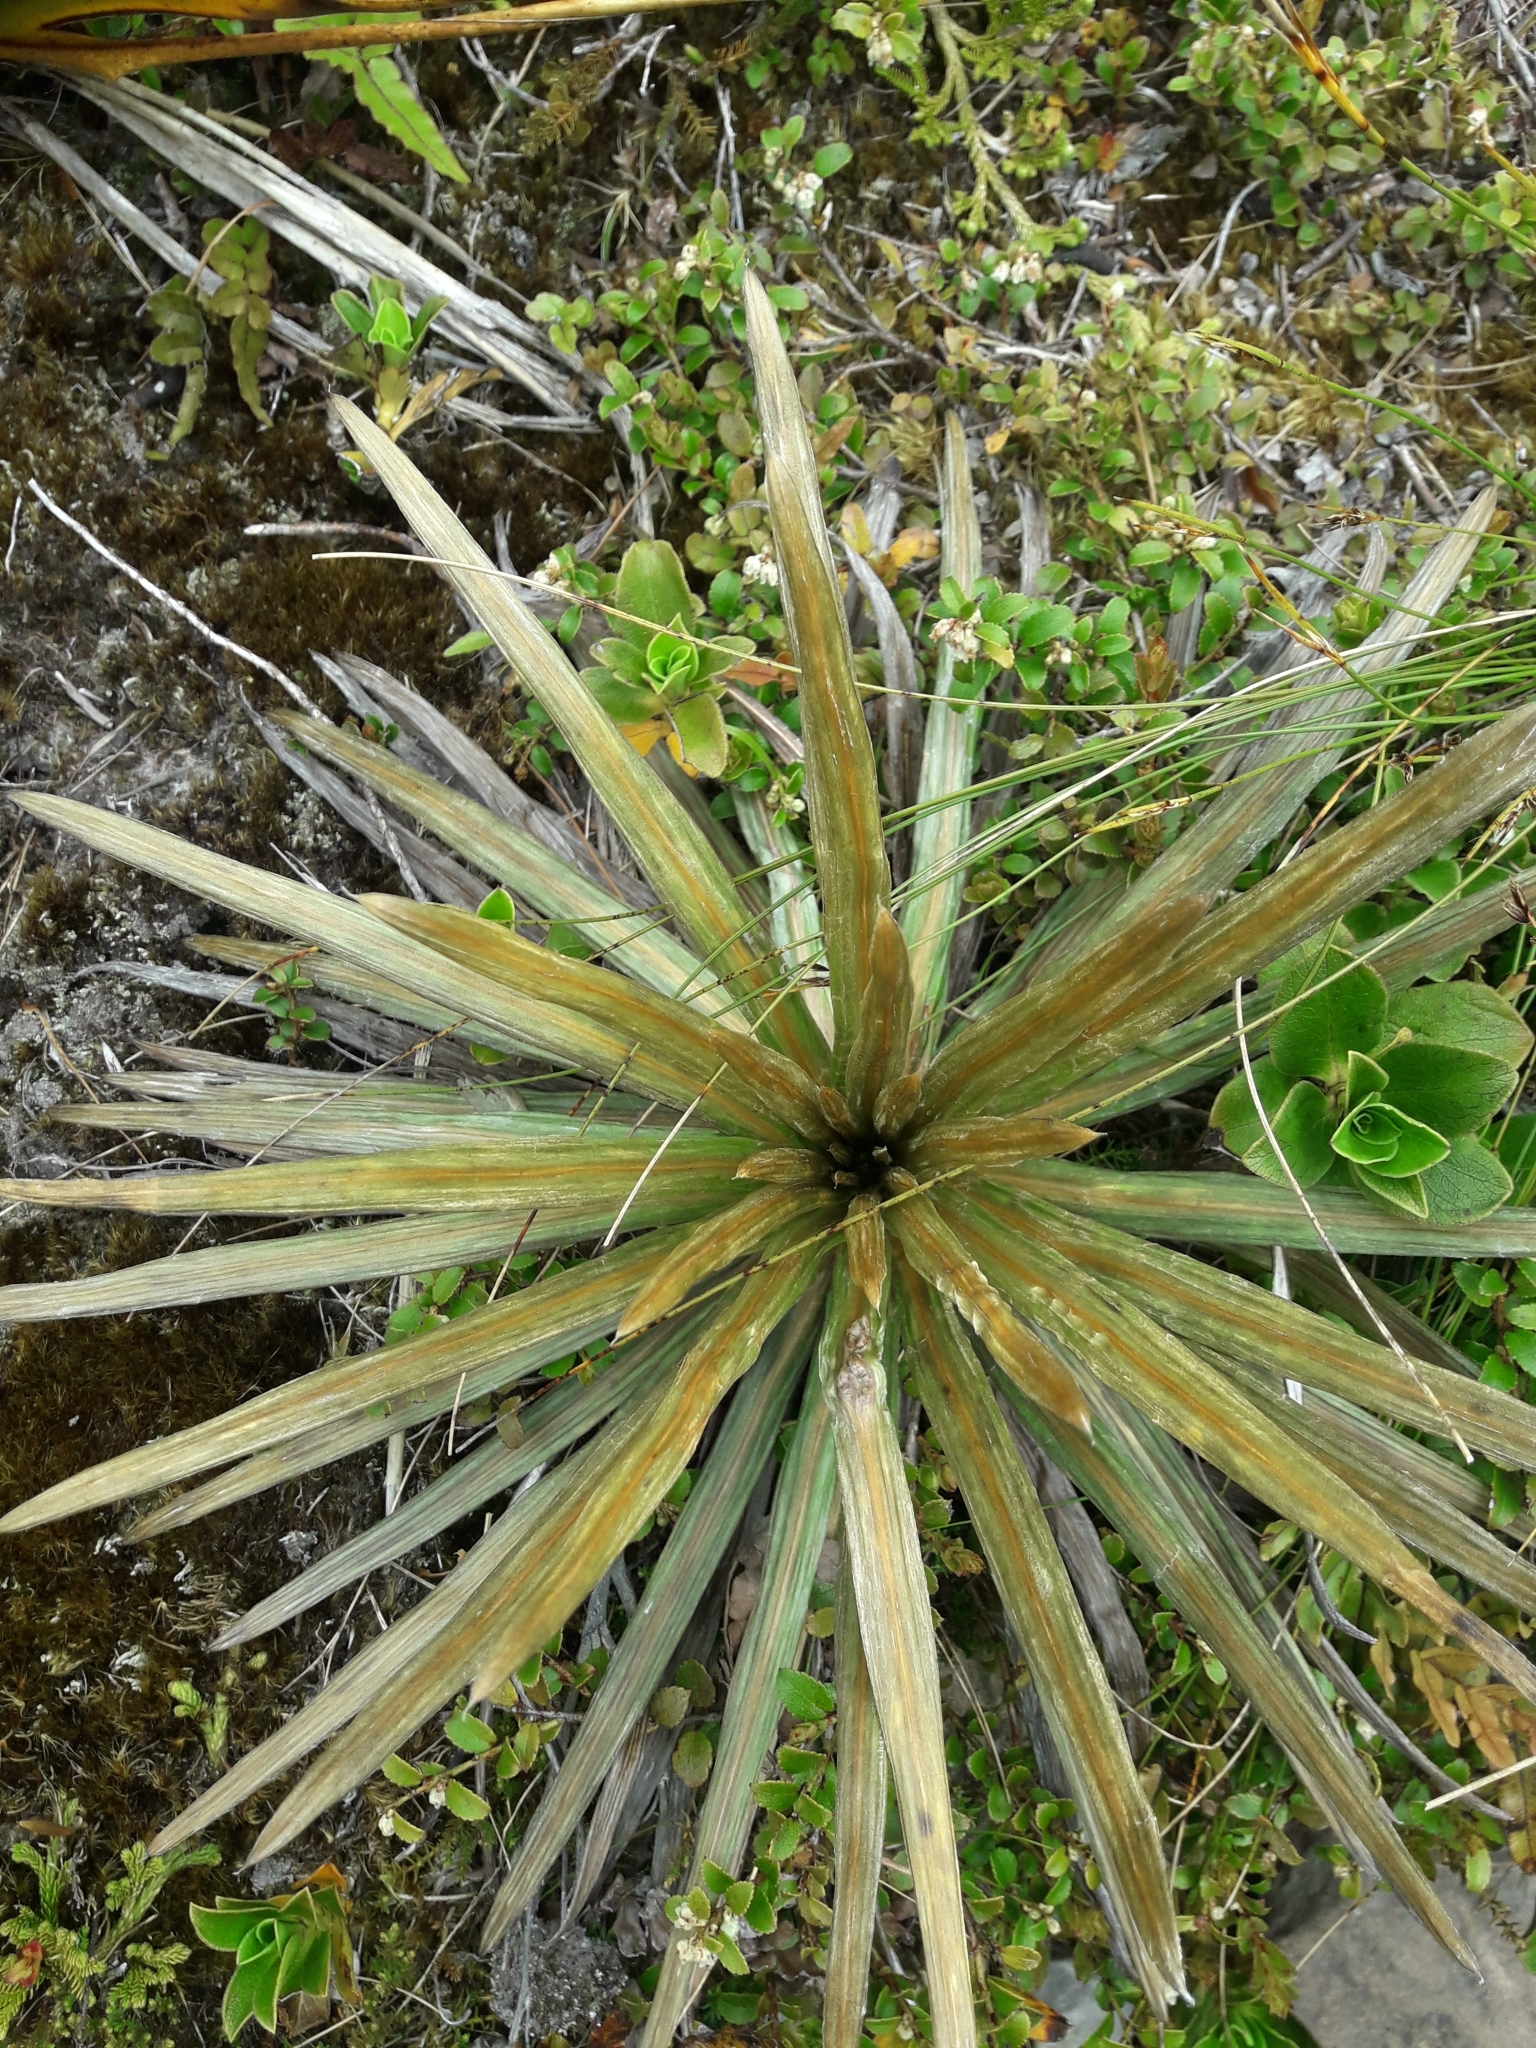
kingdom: Plantae
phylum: Tracheophyta
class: Magnoliopsida
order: Asterales
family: Asteraceae
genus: Celmisia
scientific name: Celmisia armstrongii
